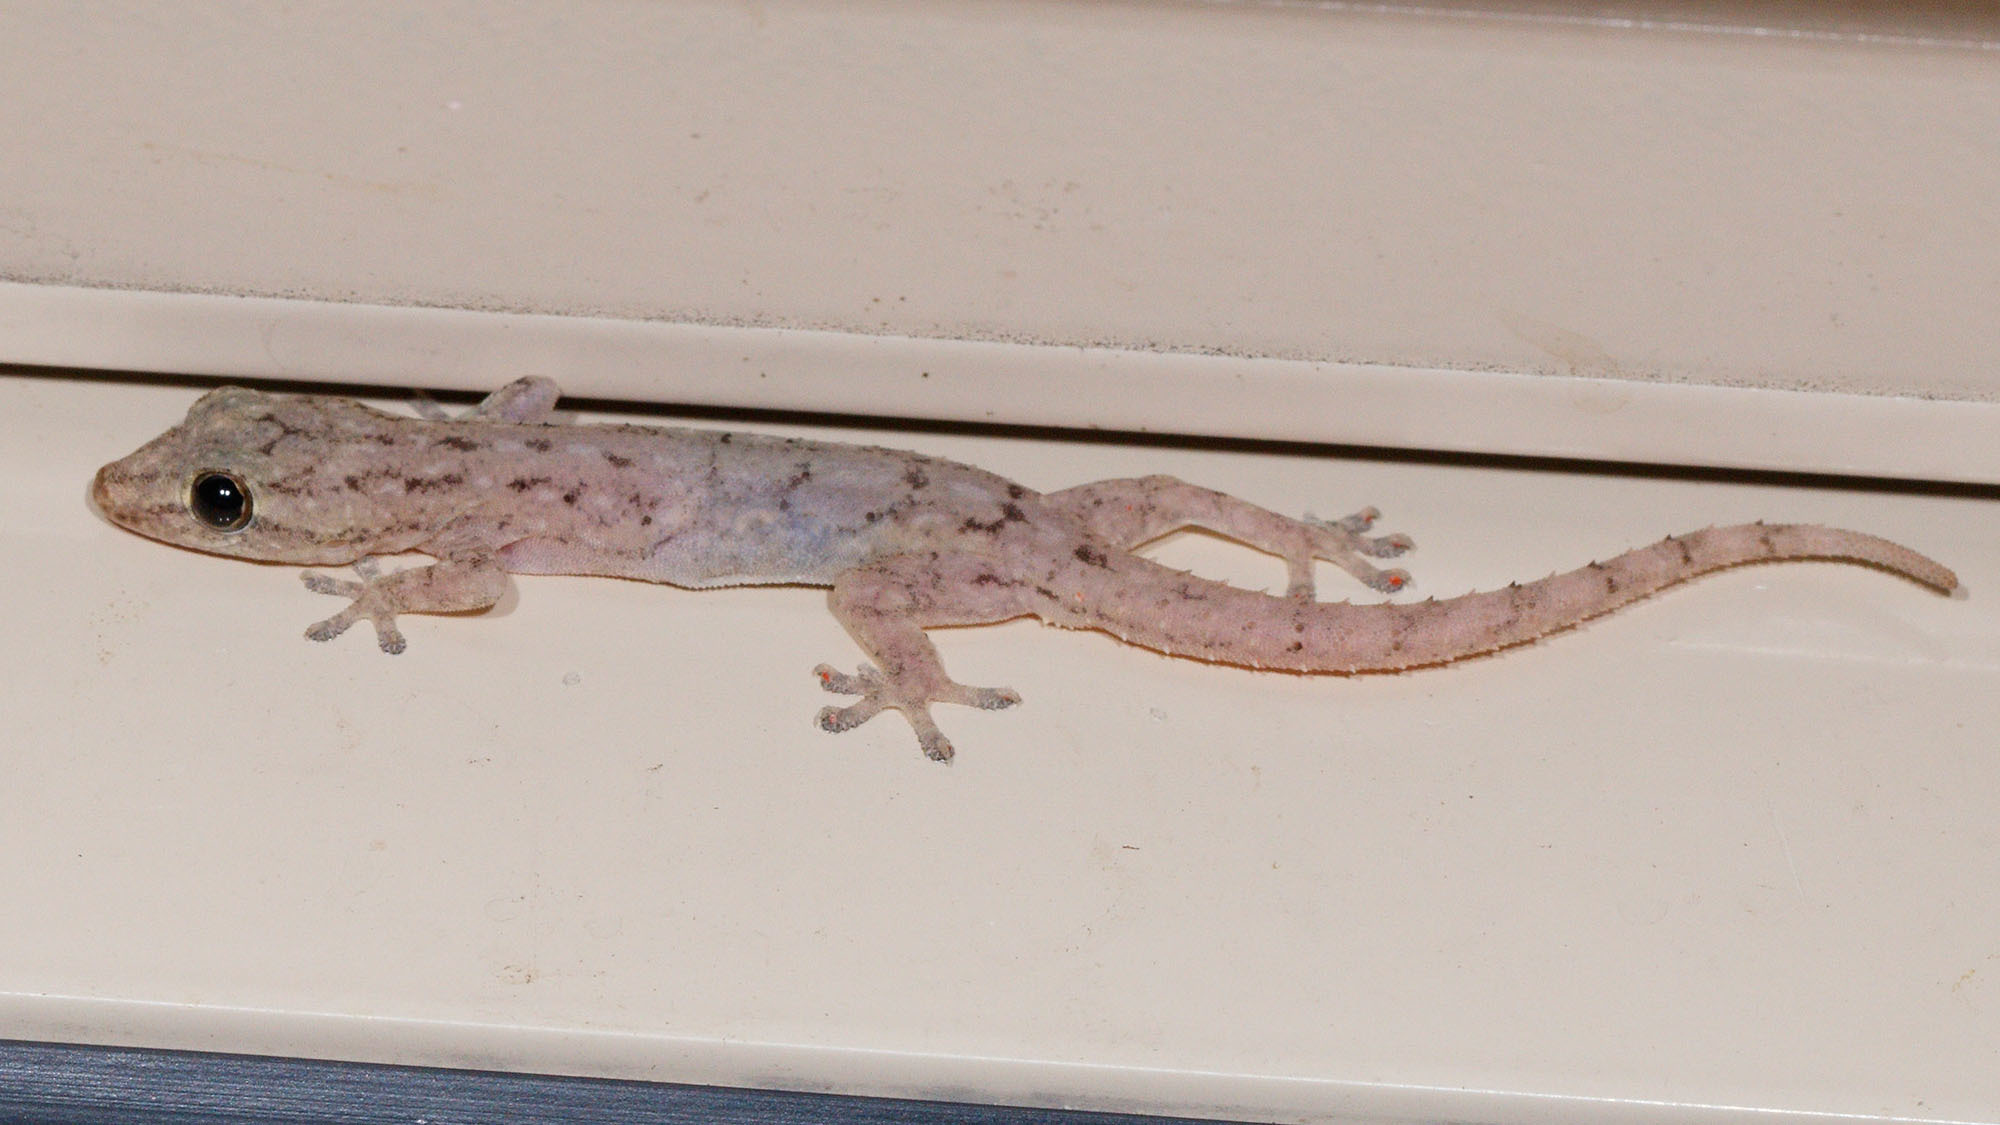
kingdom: Animalia
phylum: Chordata
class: Squamata
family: Gekkonidae
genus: Hemidactylus
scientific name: Hemidactylus frenatus
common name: Common house gecko
